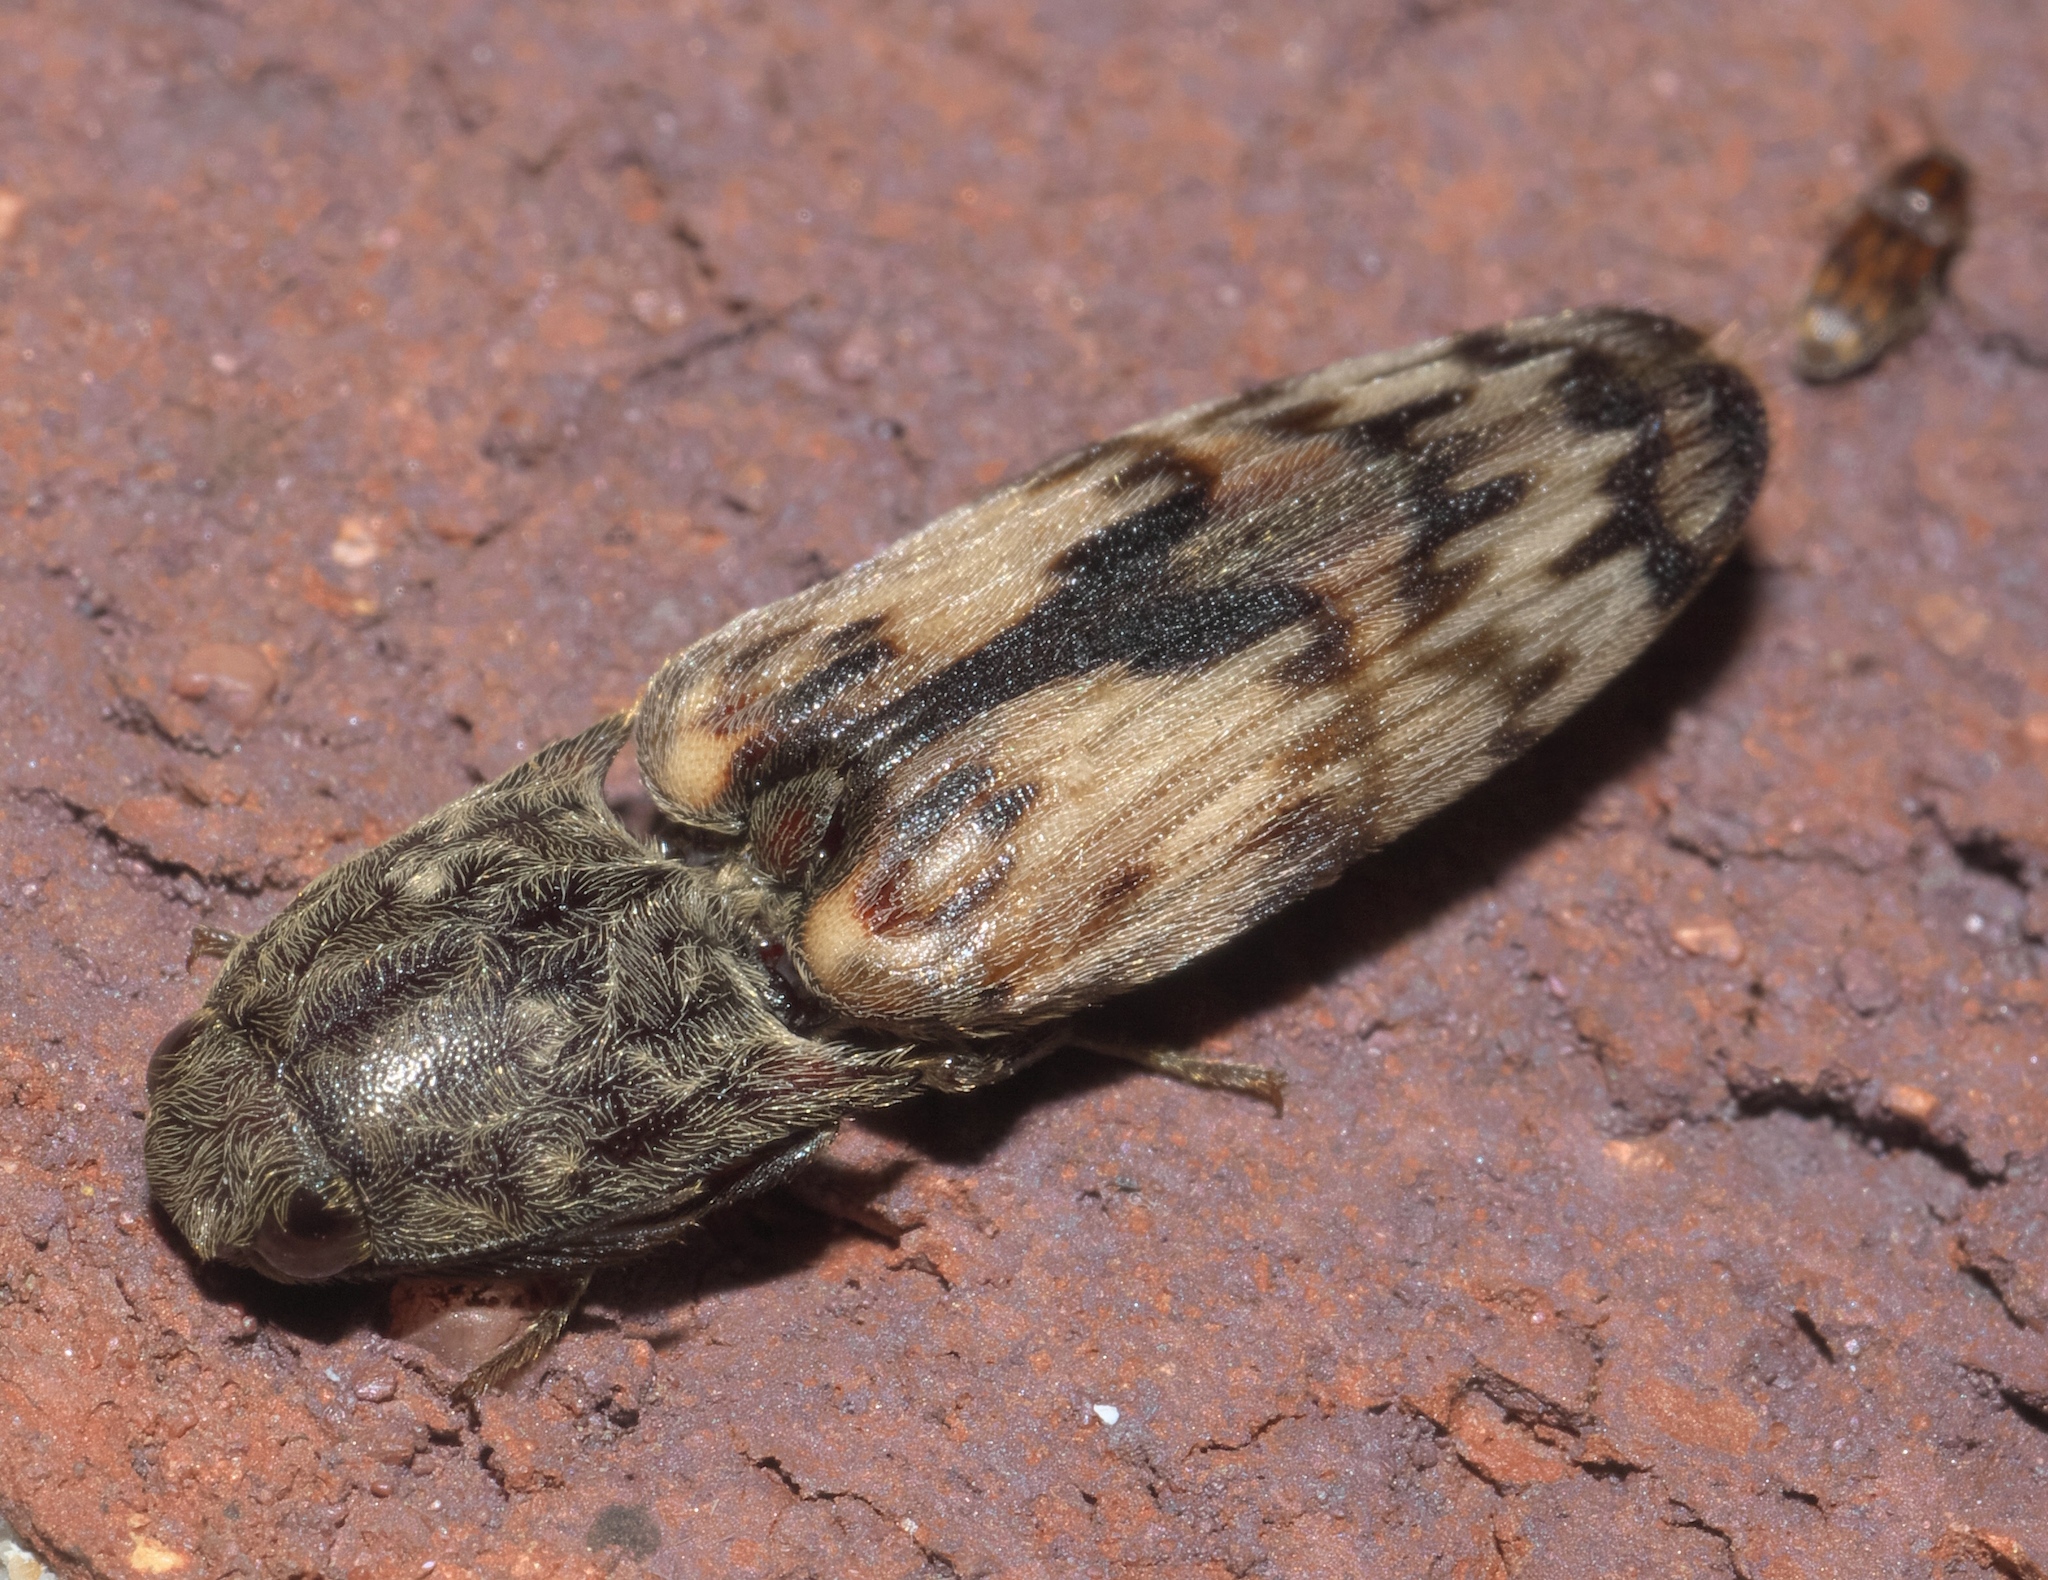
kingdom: Animalia
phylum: Arthropoda
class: Insecta
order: Coleoptera
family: Elateridae
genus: Pherhimius
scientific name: Pherhimius fascicularis
